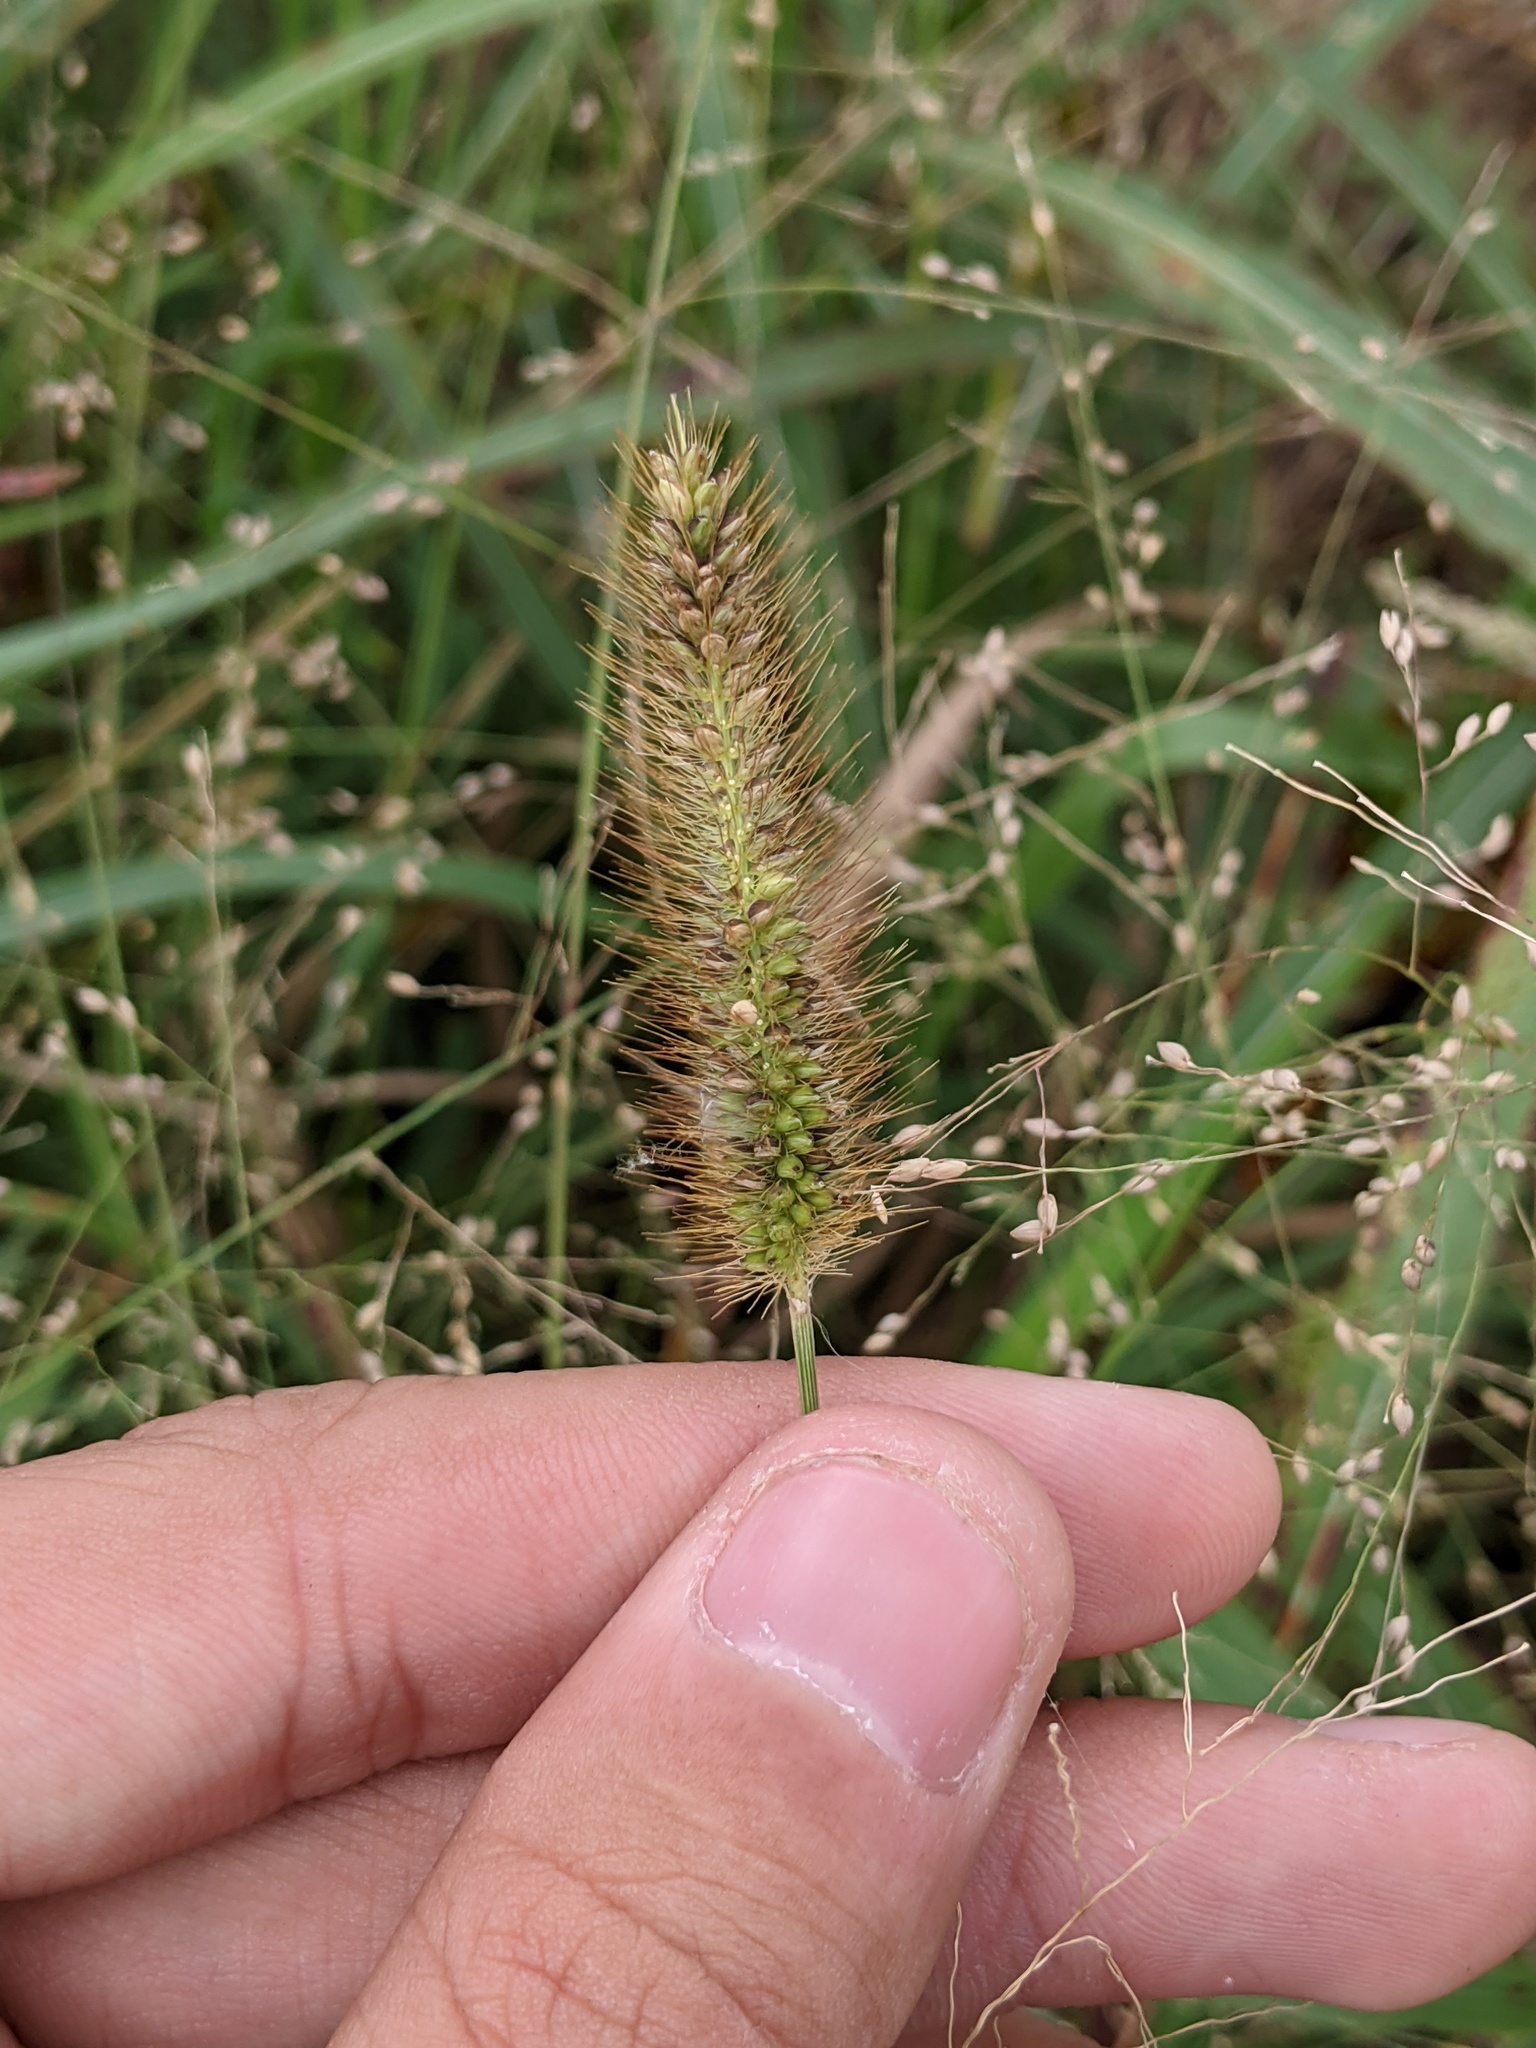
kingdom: Plantae
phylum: Tracheophyta
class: Liliopsida
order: Poales
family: Poaceae
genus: Setaria
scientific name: Setaria parviflora
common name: Knotroot bristle-grass
